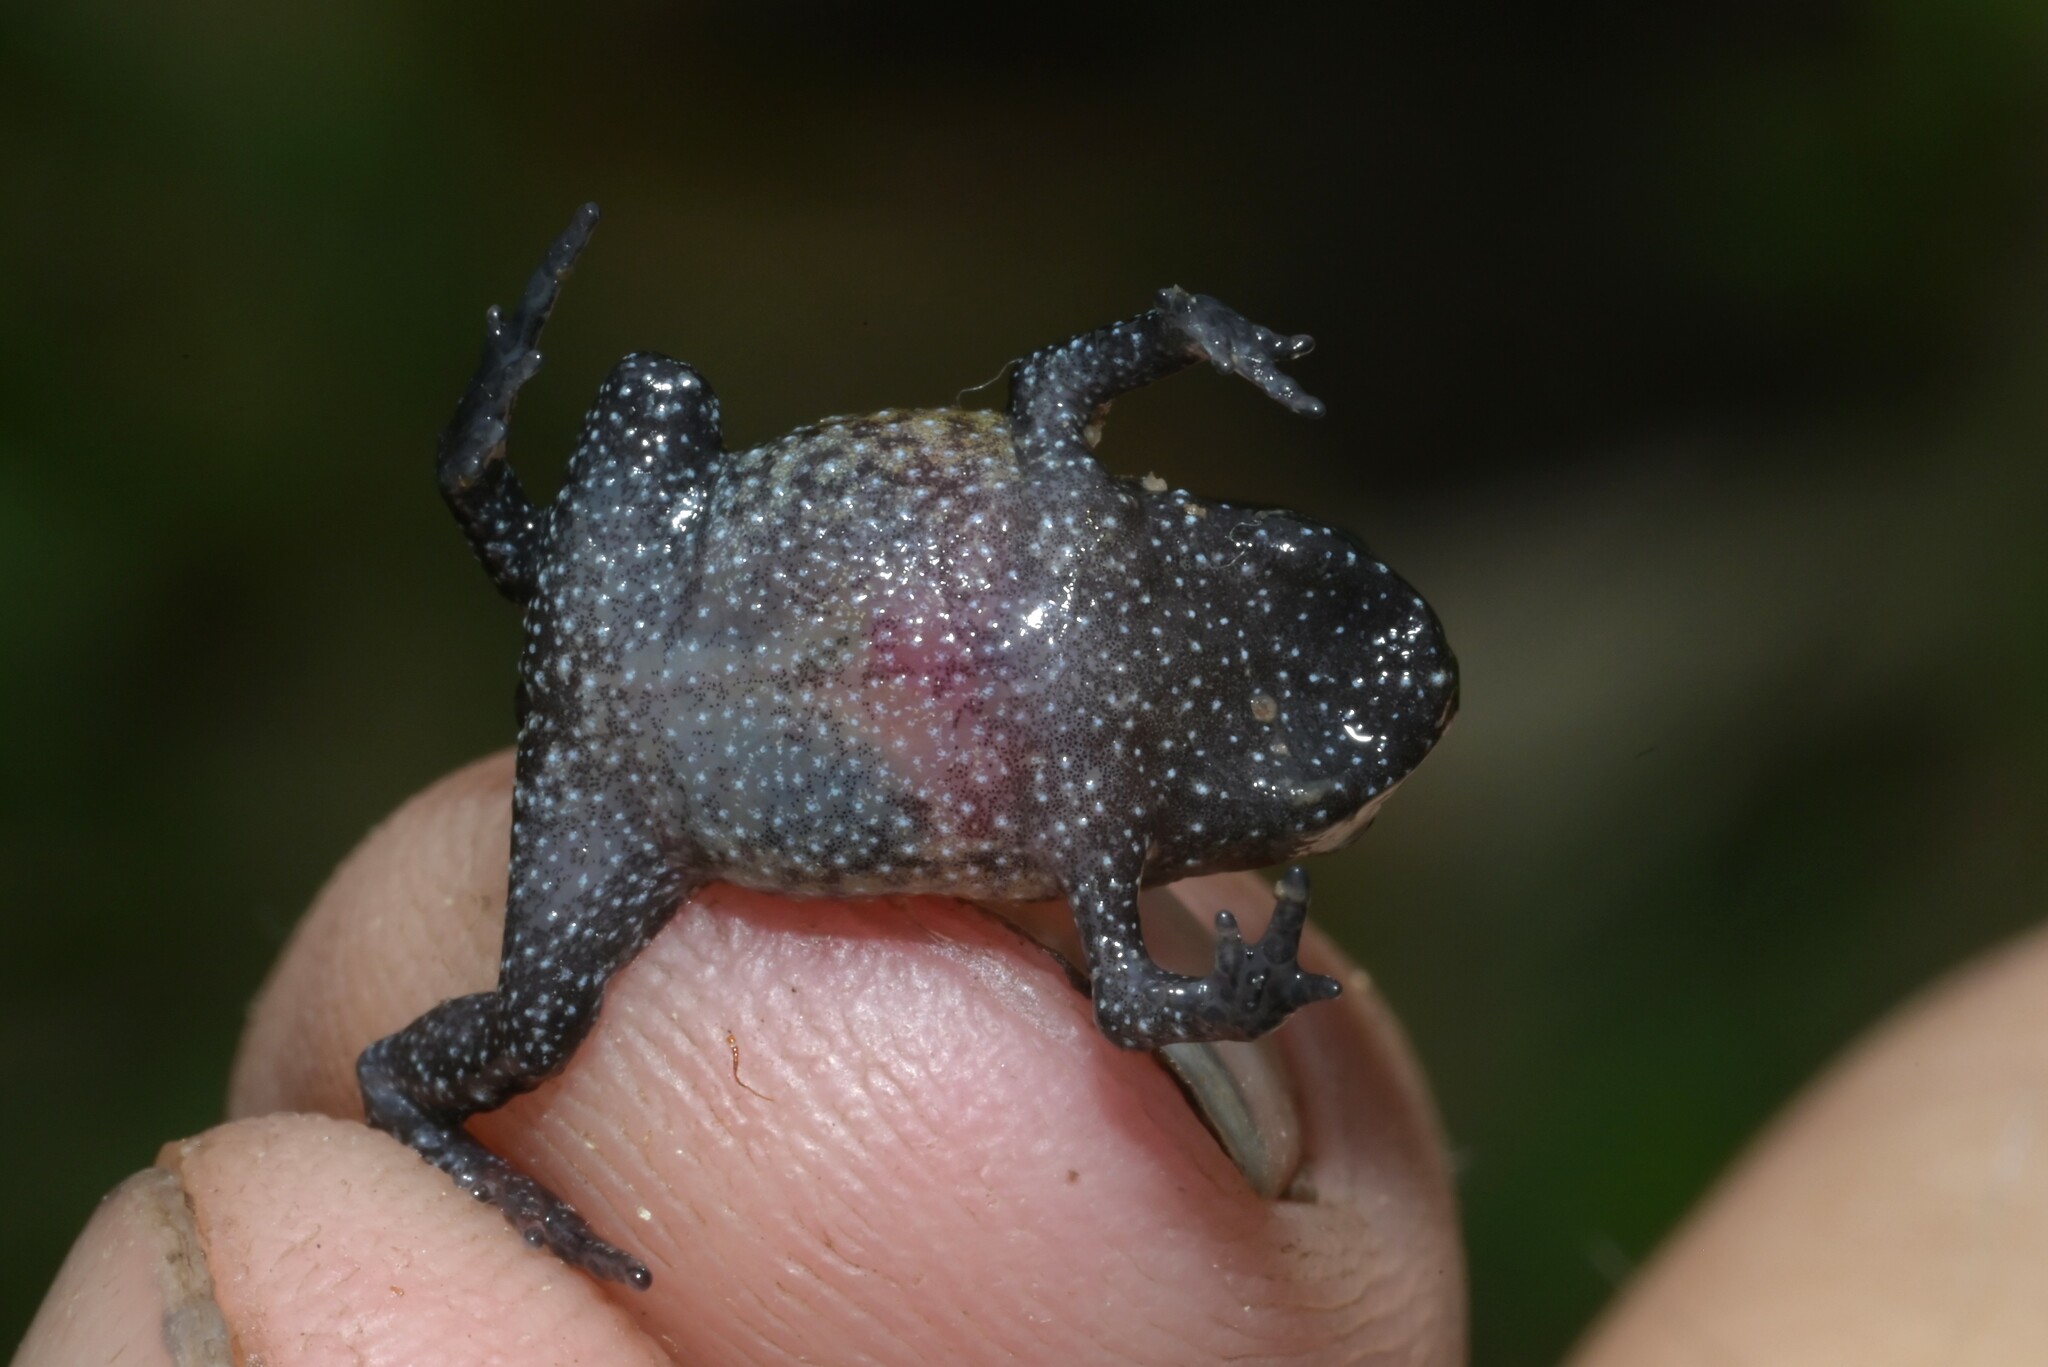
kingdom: Animalia
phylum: Chordata
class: Amphibia
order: Anura
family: Brevicipitidae
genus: Probreviceps
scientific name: Probreviceps rungwensis
